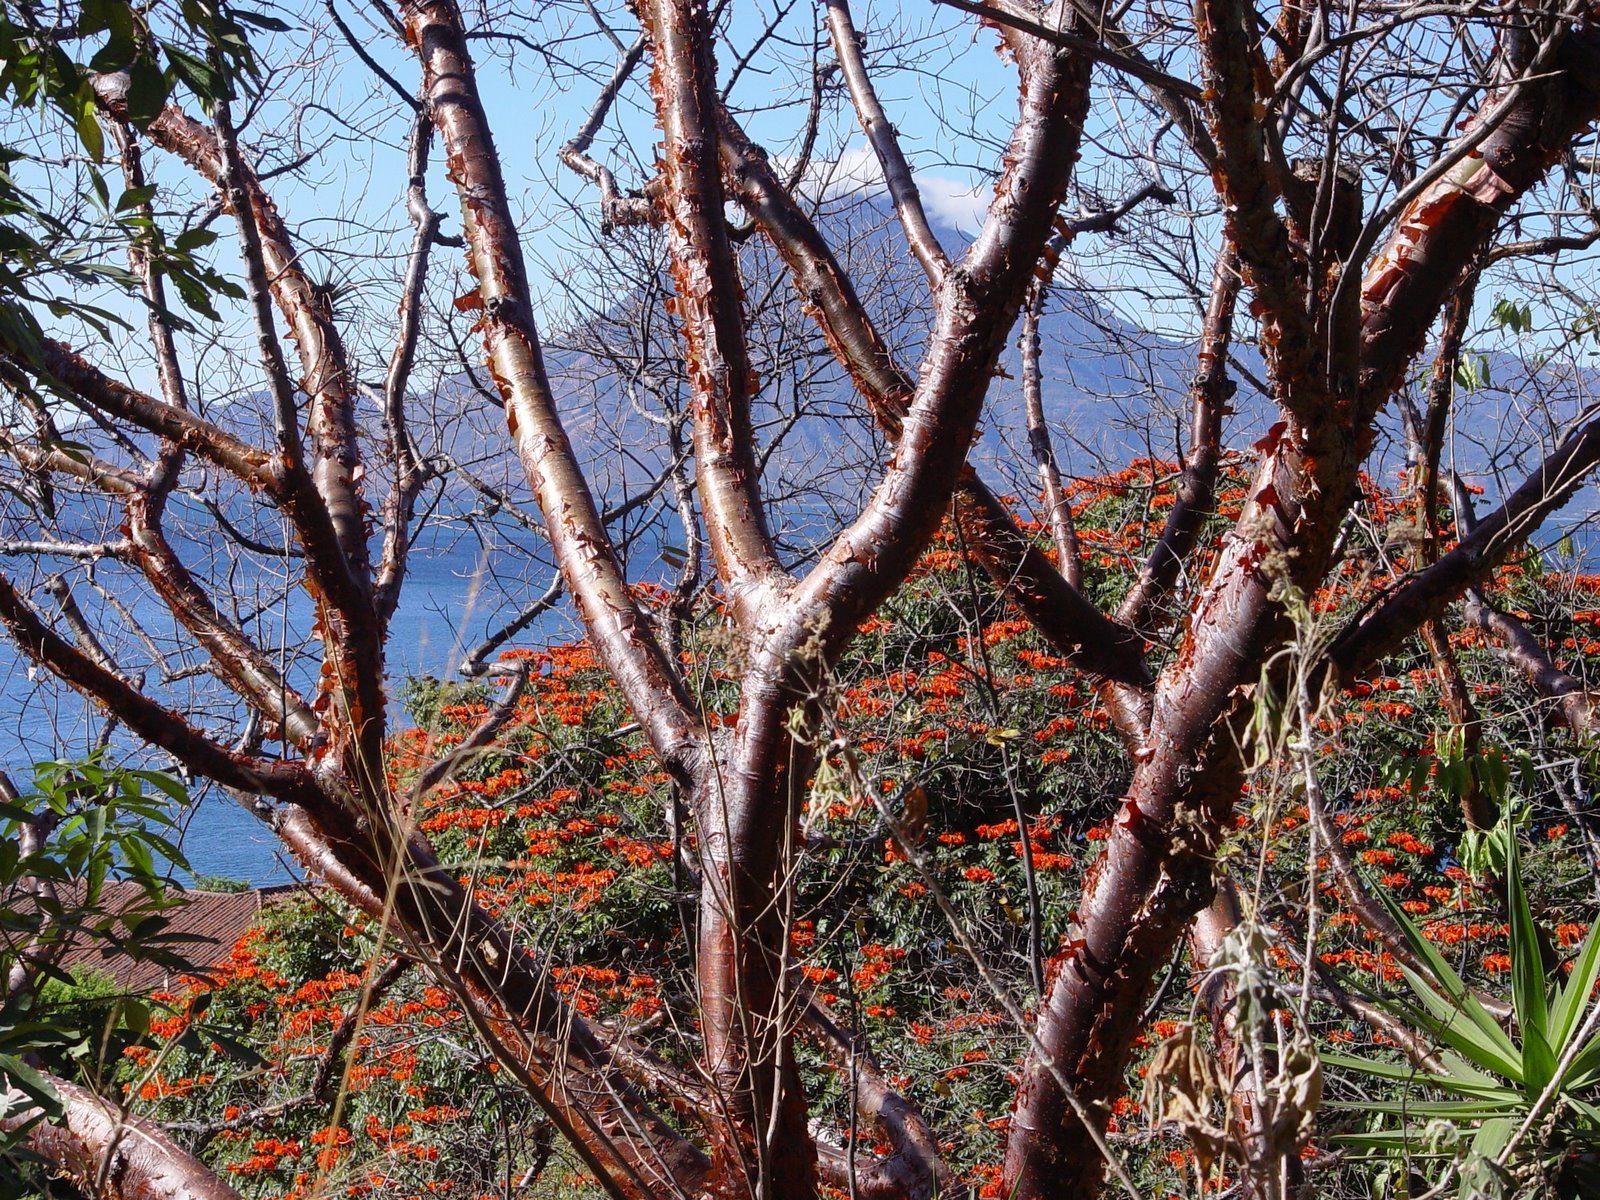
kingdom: Plantae
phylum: Tracheophyta
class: Magnoliopsida
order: Sapindales
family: Burseraceae
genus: Bursera
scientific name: Bursera simaruba
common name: Turpentine tree
